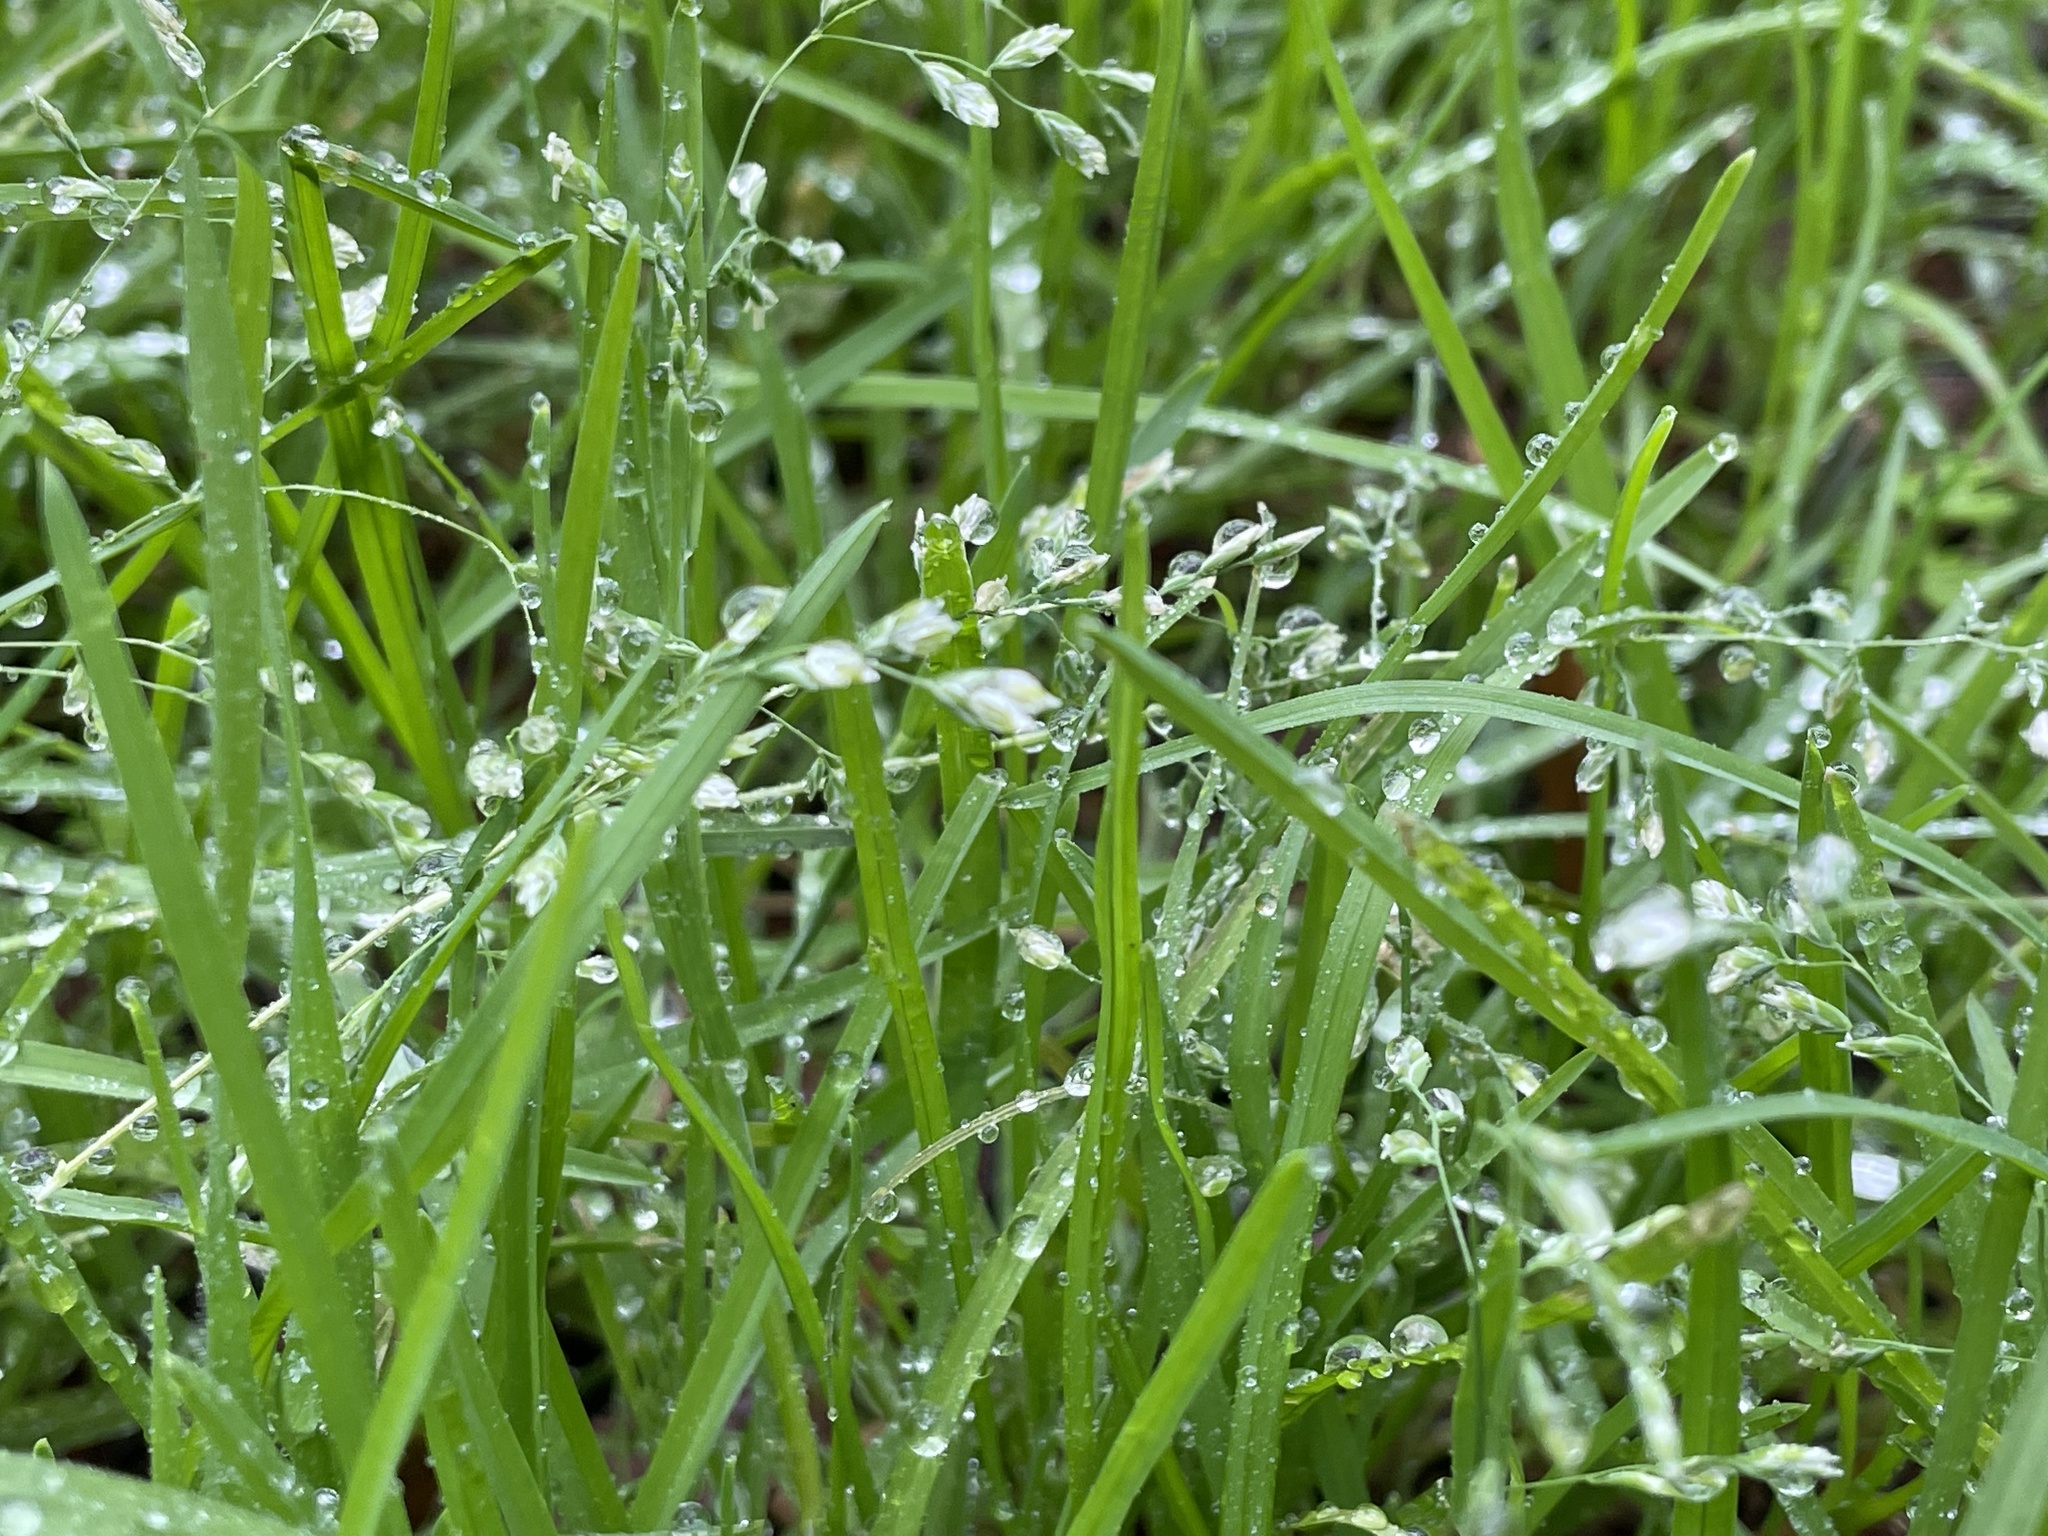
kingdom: Plantae
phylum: Tracheophyta
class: Liliopsida
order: Poales
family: Poaceae
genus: Poa
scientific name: Poa annua
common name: Annual bluegrass
